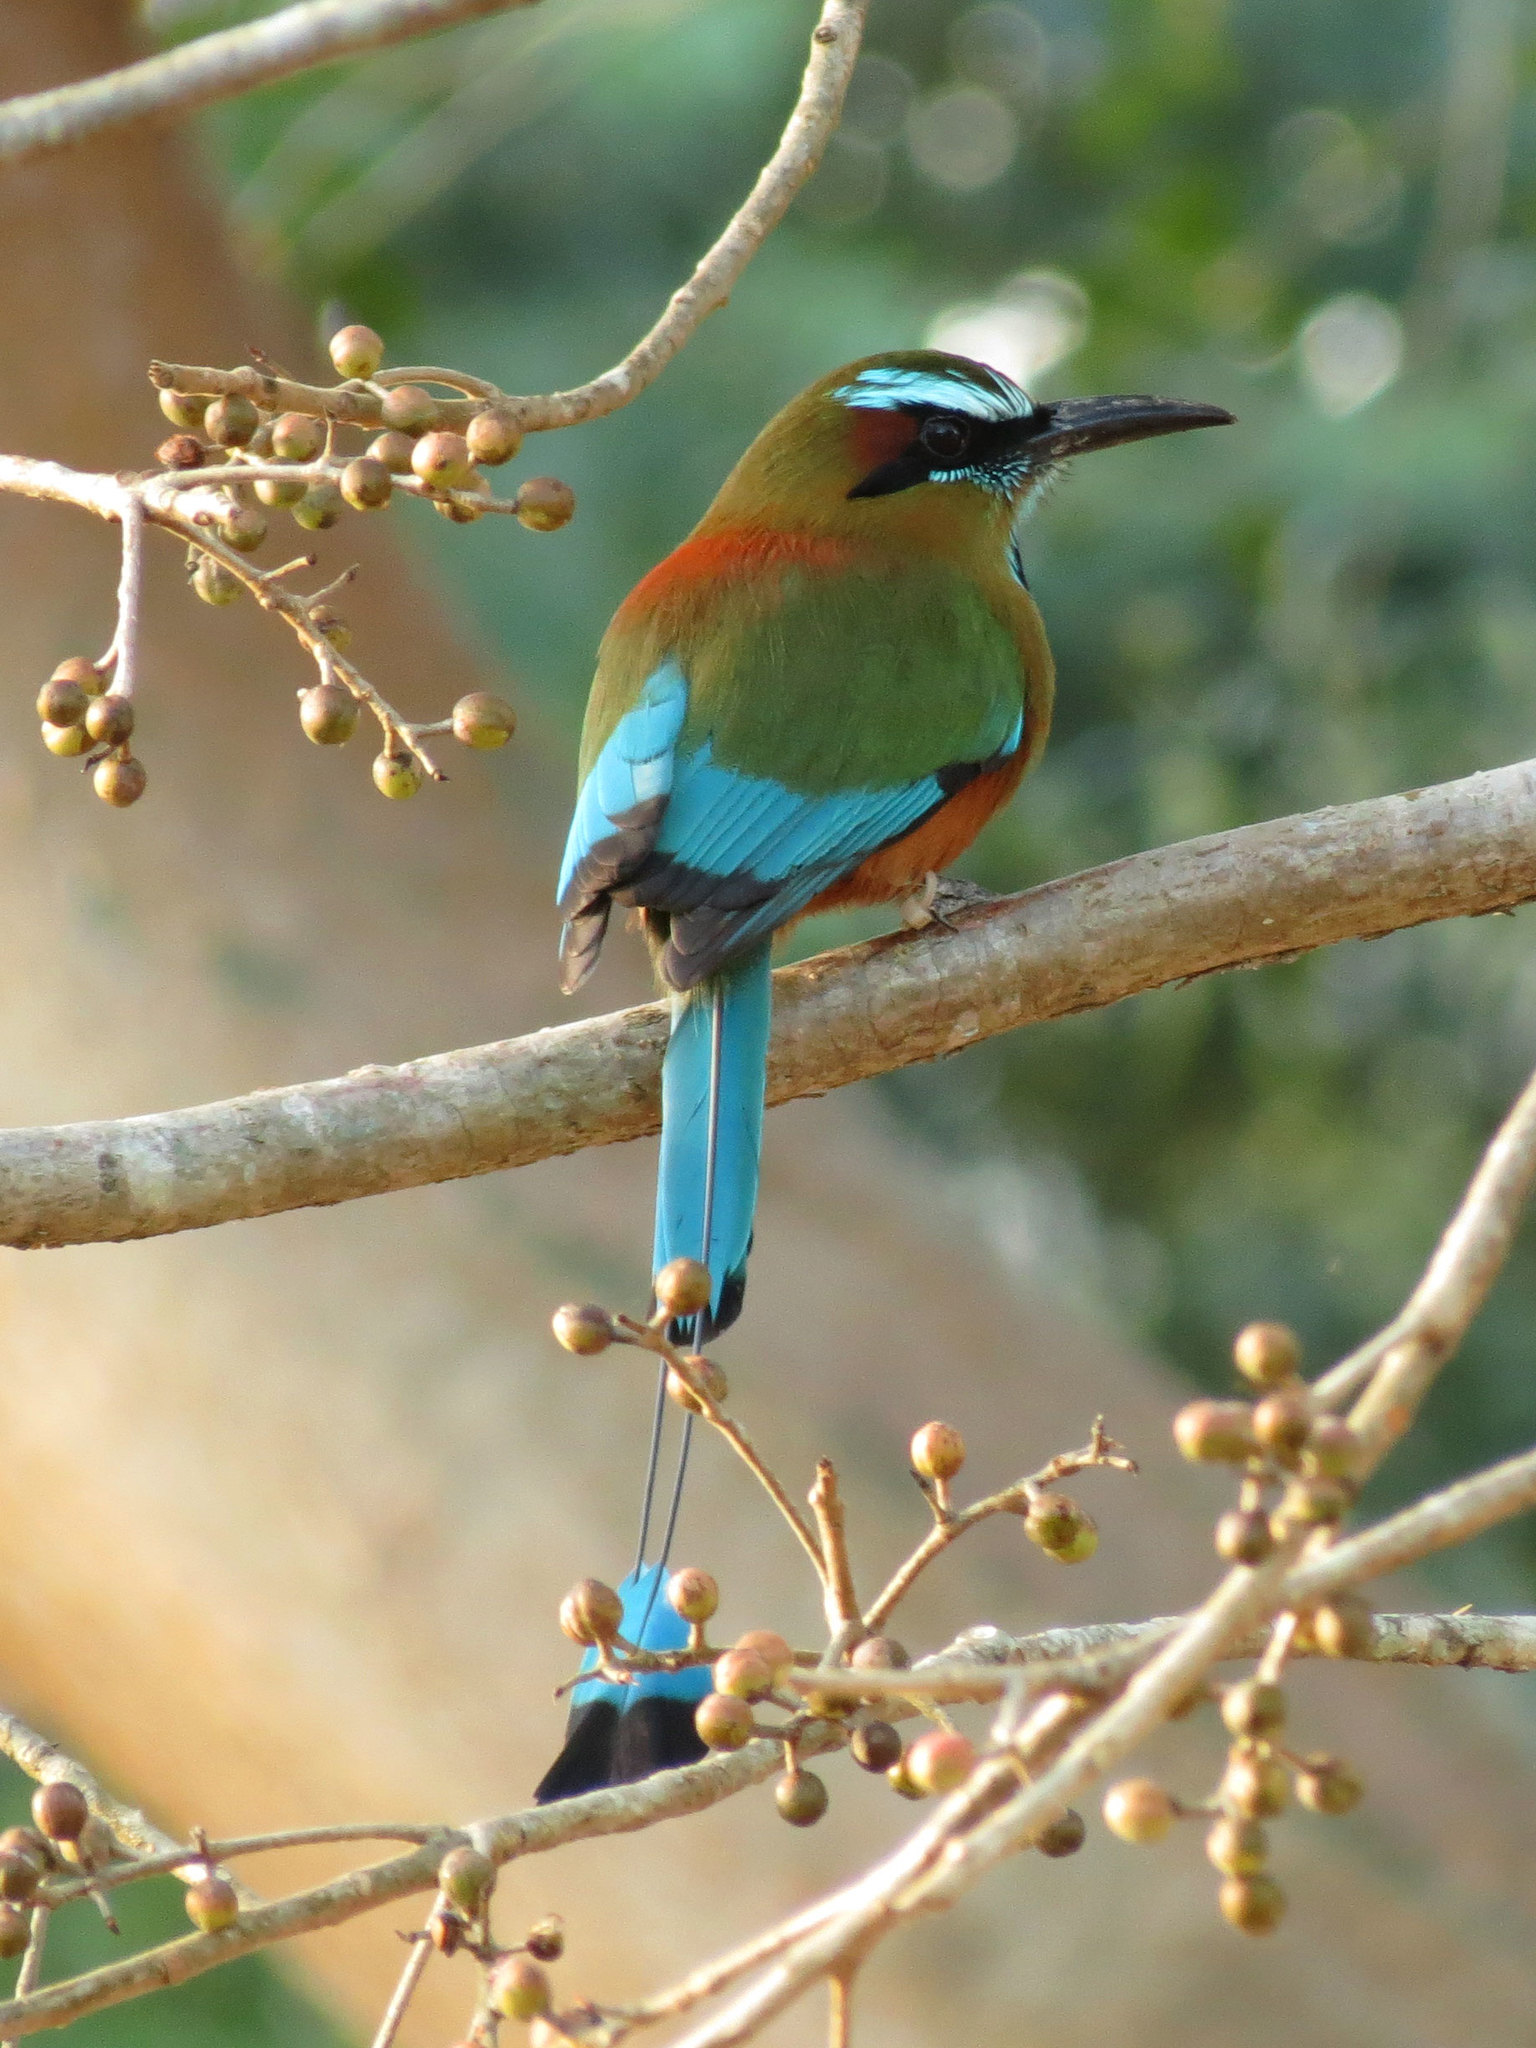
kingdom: Animalia
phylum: Chordata
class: Aves
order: Coraciiformes
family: Momotidae
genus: Eumomota
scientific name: Eumomota superciliosa
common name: Turquoise-browed motmot
